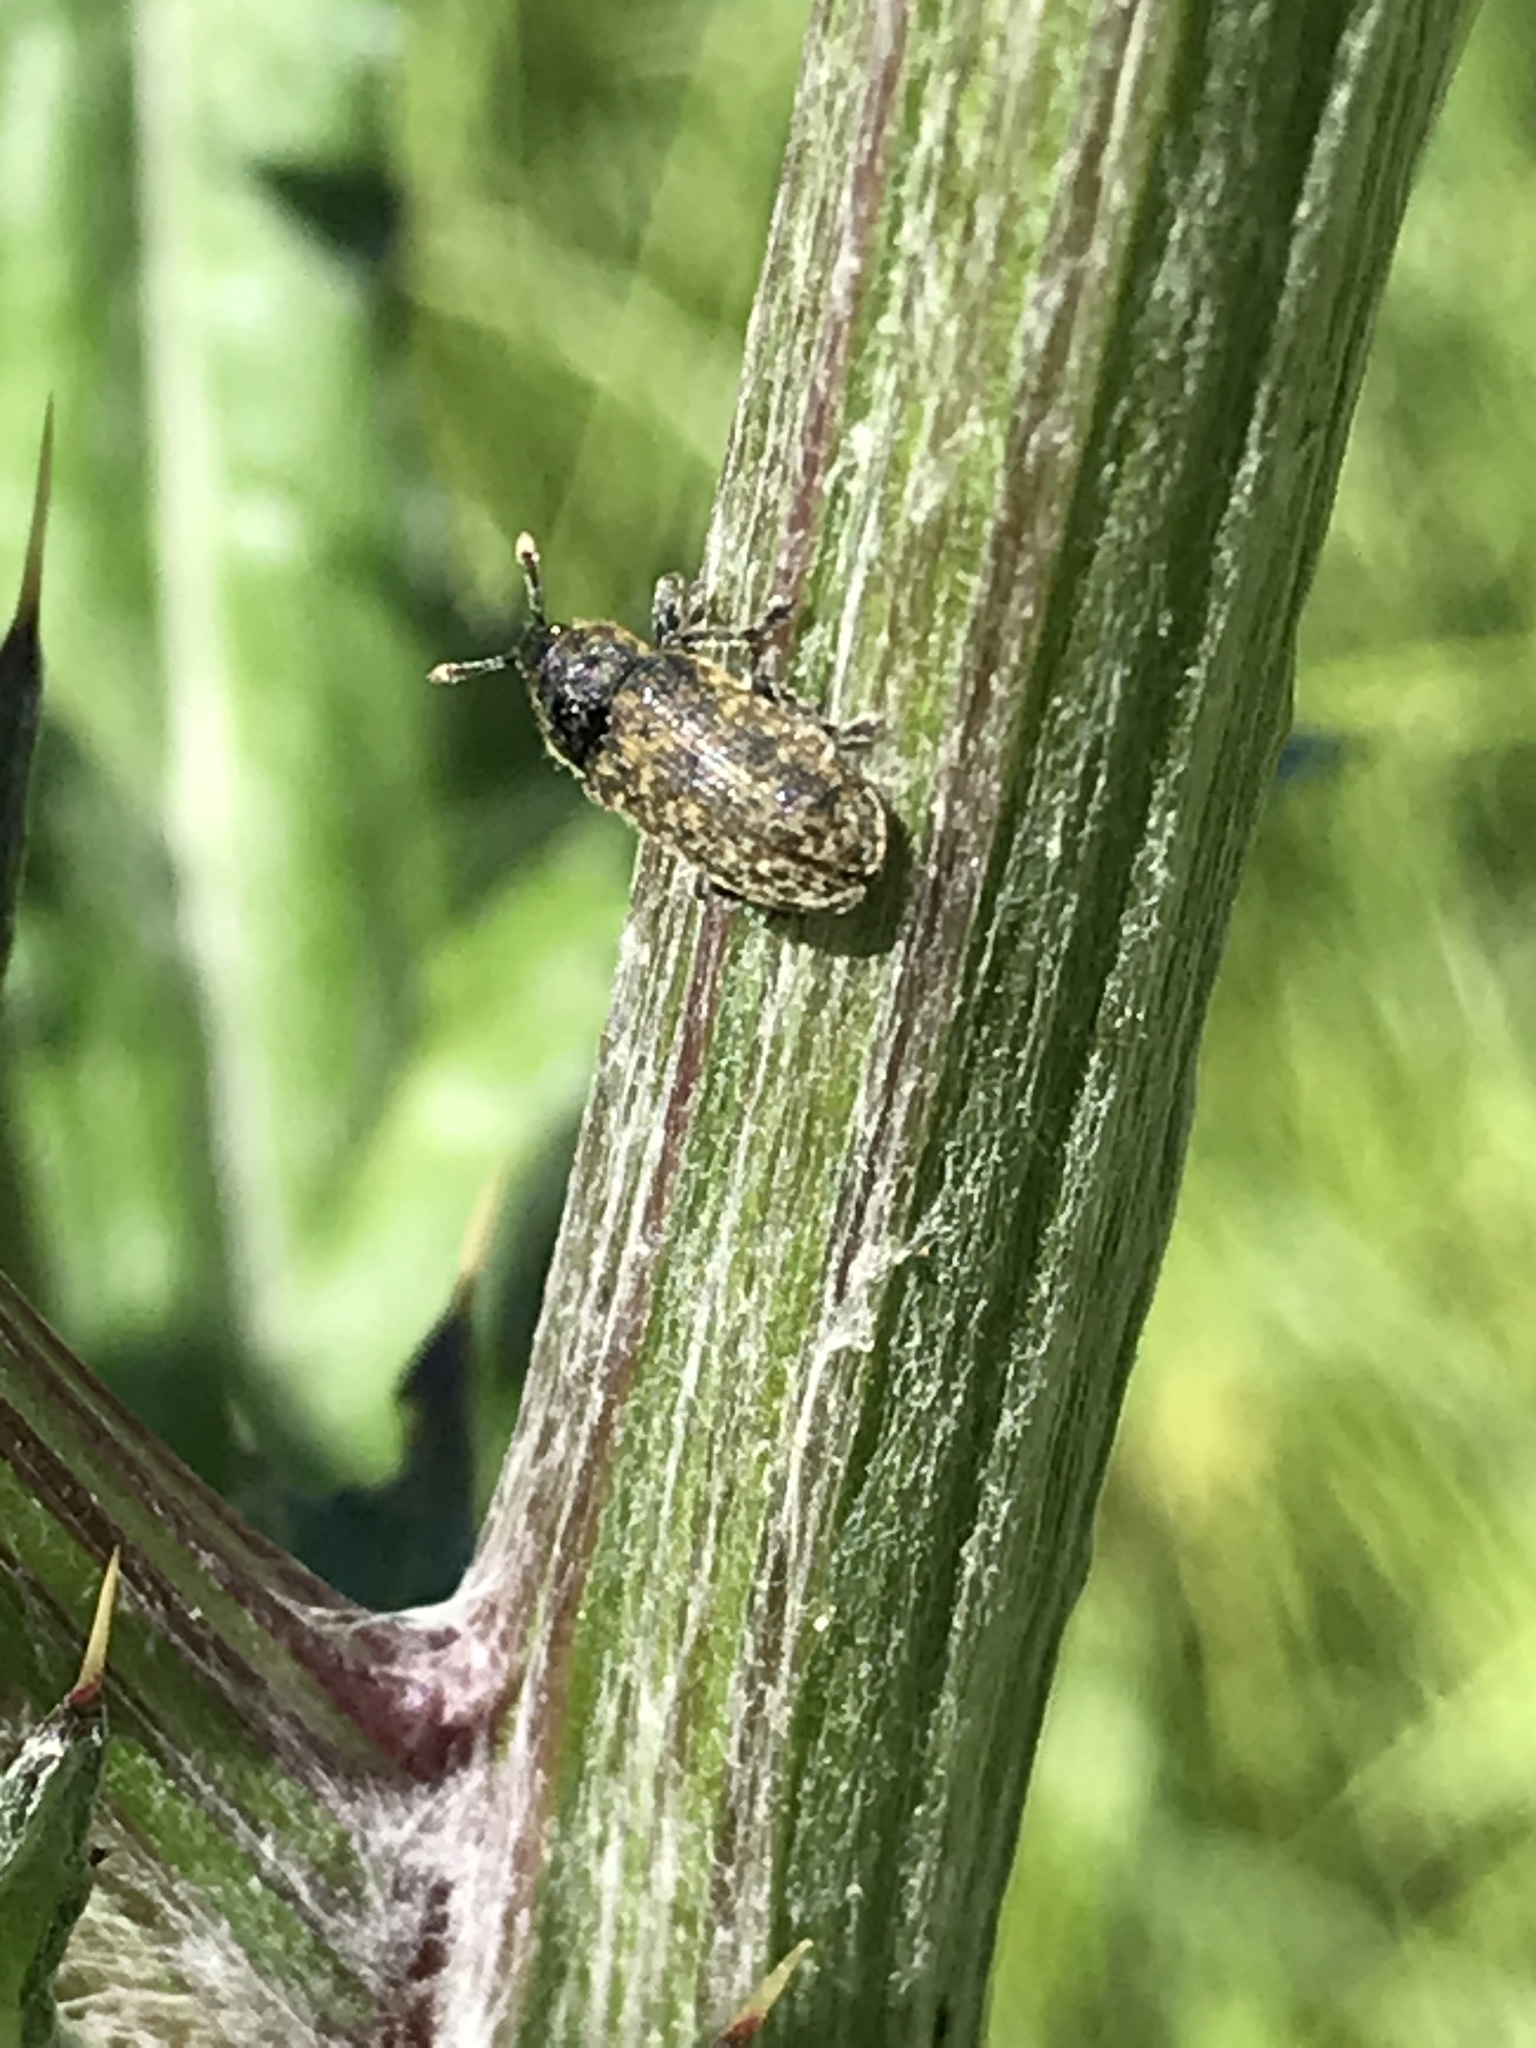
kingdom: Animalia
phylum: Arthropoda
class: Insecta
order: Coleoptera
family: Curculionidae
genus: Rhinocyllus
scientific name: Rhinocyllus conicus
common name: Weevil
